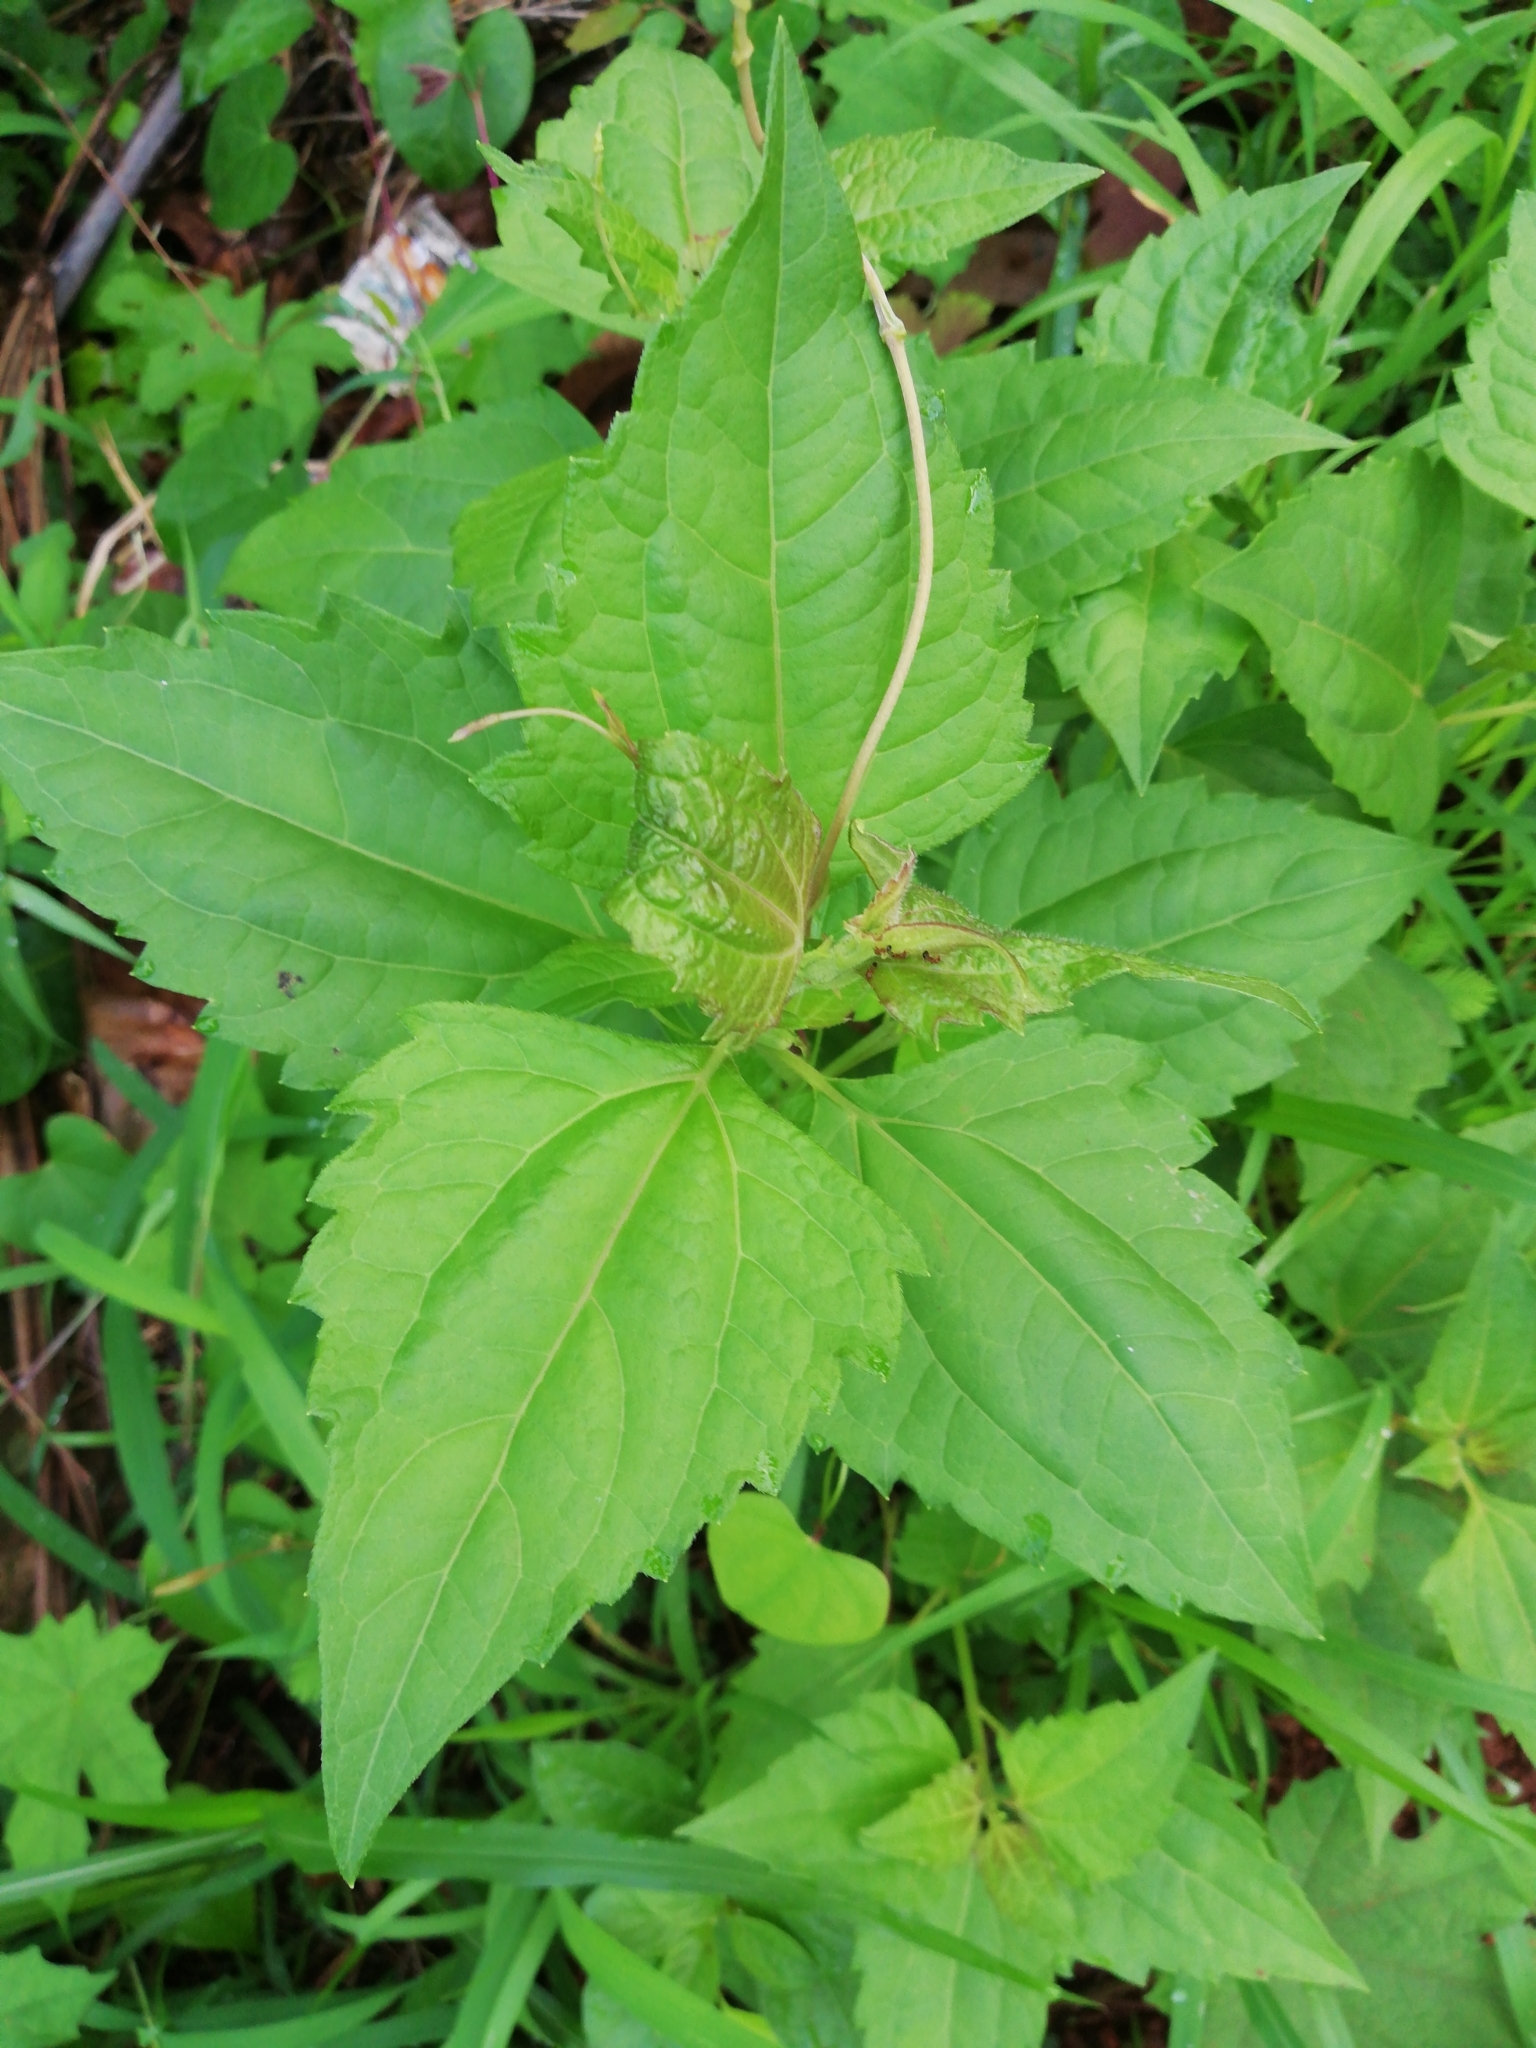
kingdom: Plantae
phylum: Tracheophyta
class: Magnoliopsida
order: Asterales
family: Asteraceae
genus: Chromolaena
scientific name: Chromolaena odorata
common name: Siamweed
